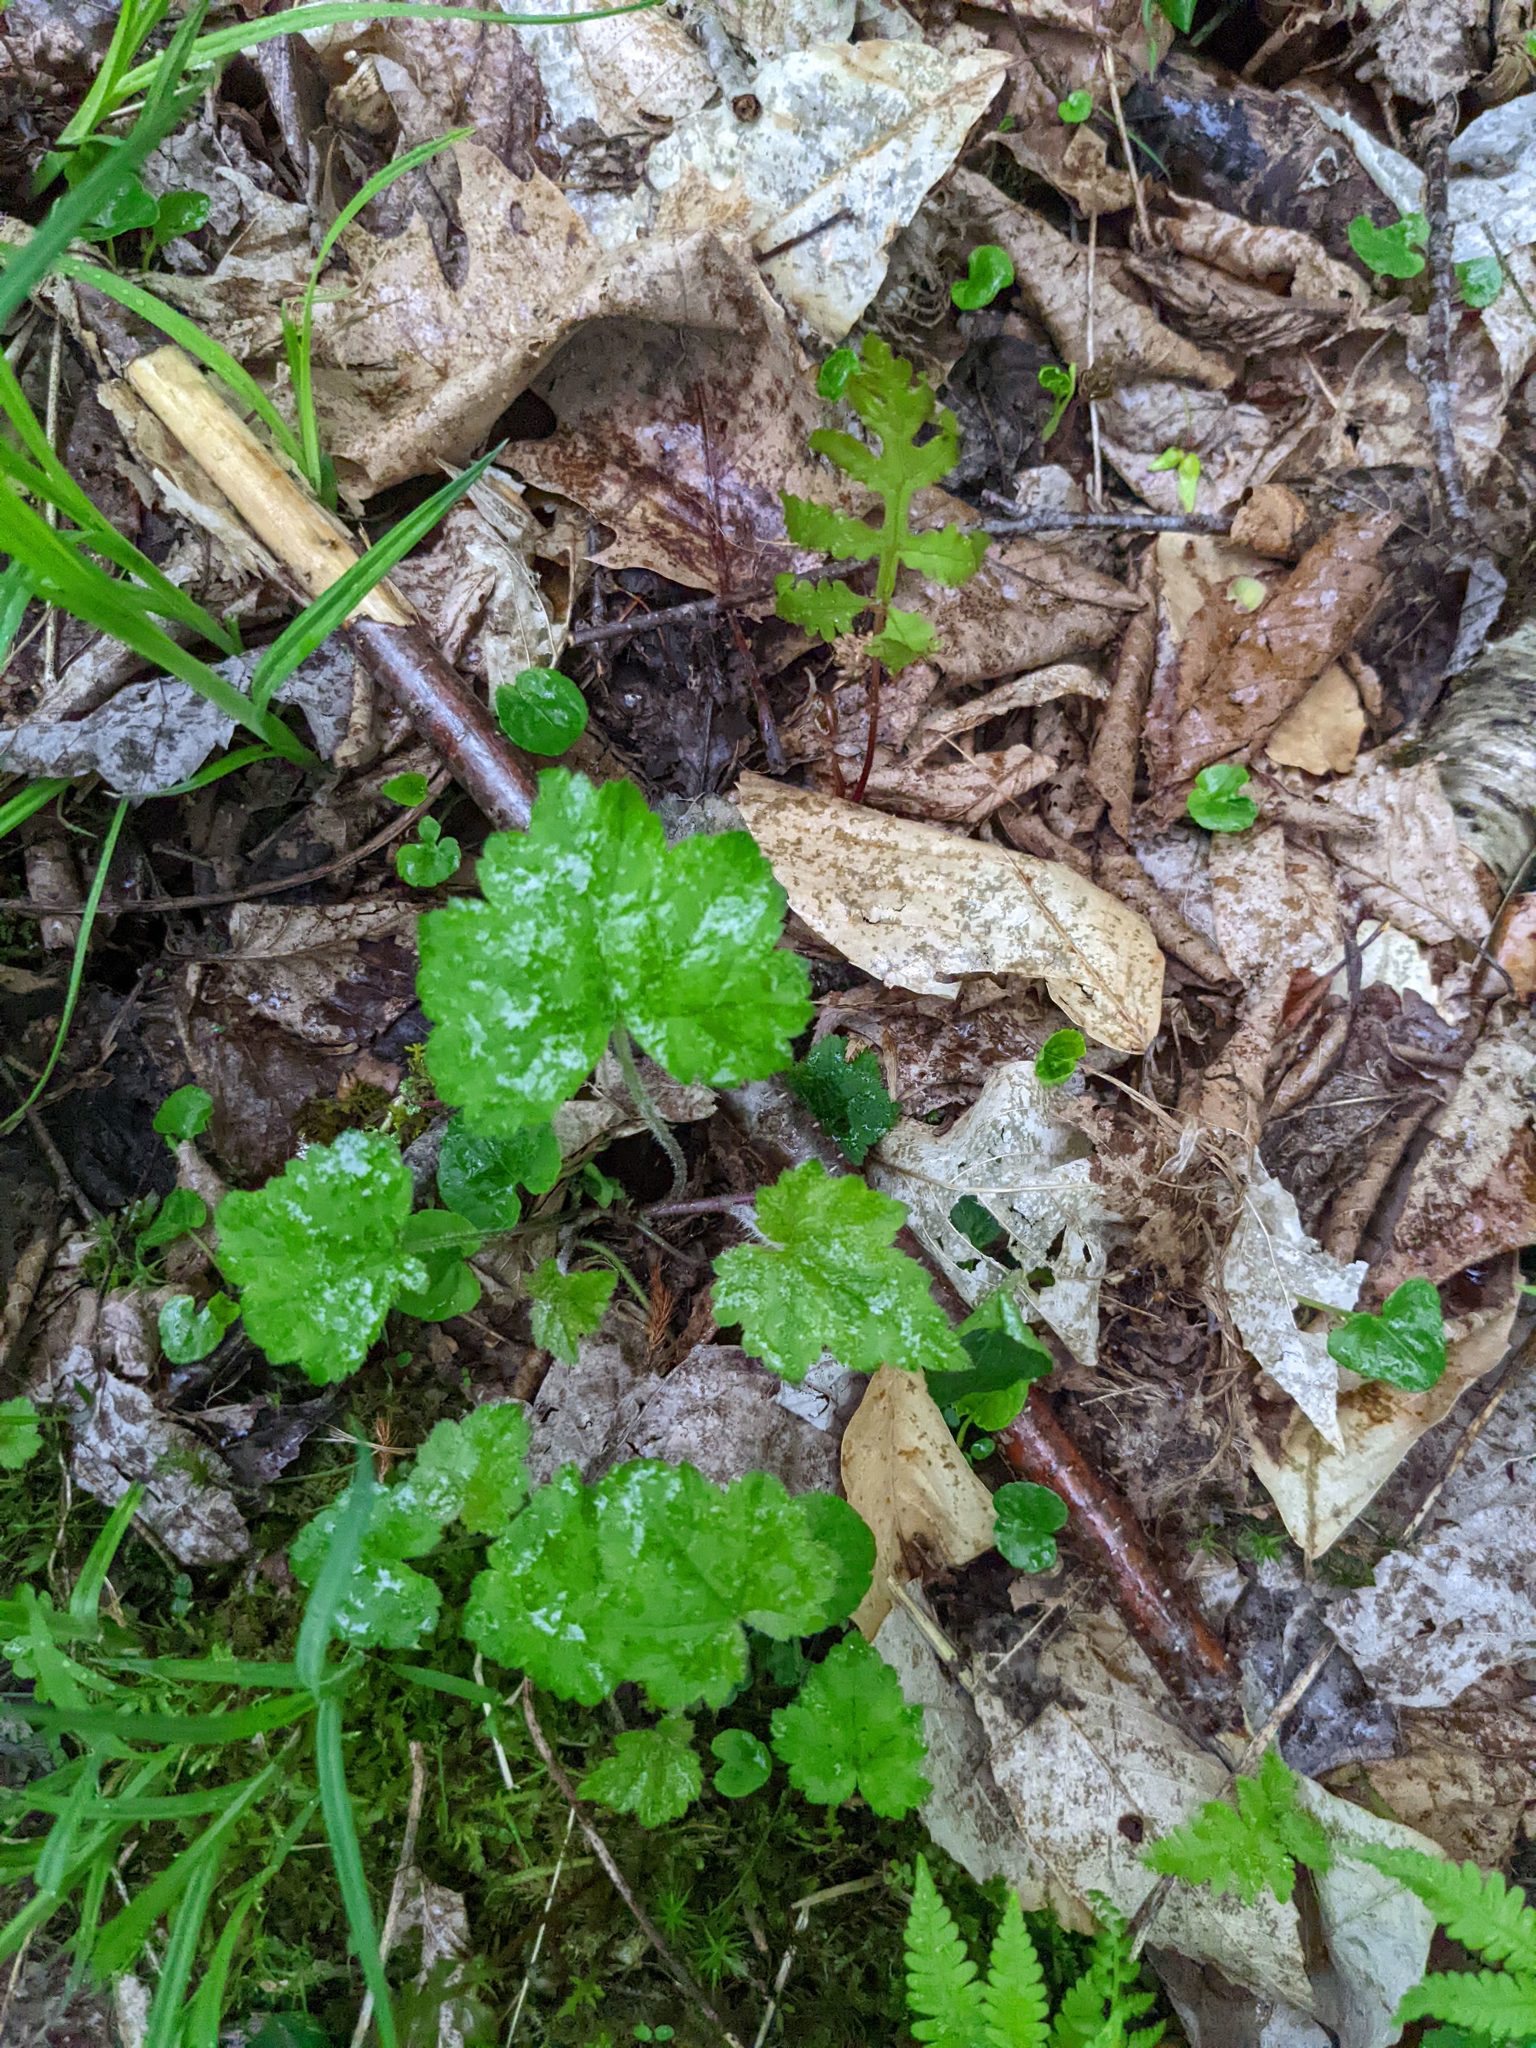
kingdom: Plantae
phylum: Tracheophyta
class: Magnoliopsida
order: Saxifragales
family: Saxifragaceae
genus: Tiarella
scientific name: Tiarella stolonifera
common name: Stoloniferous foamflower
